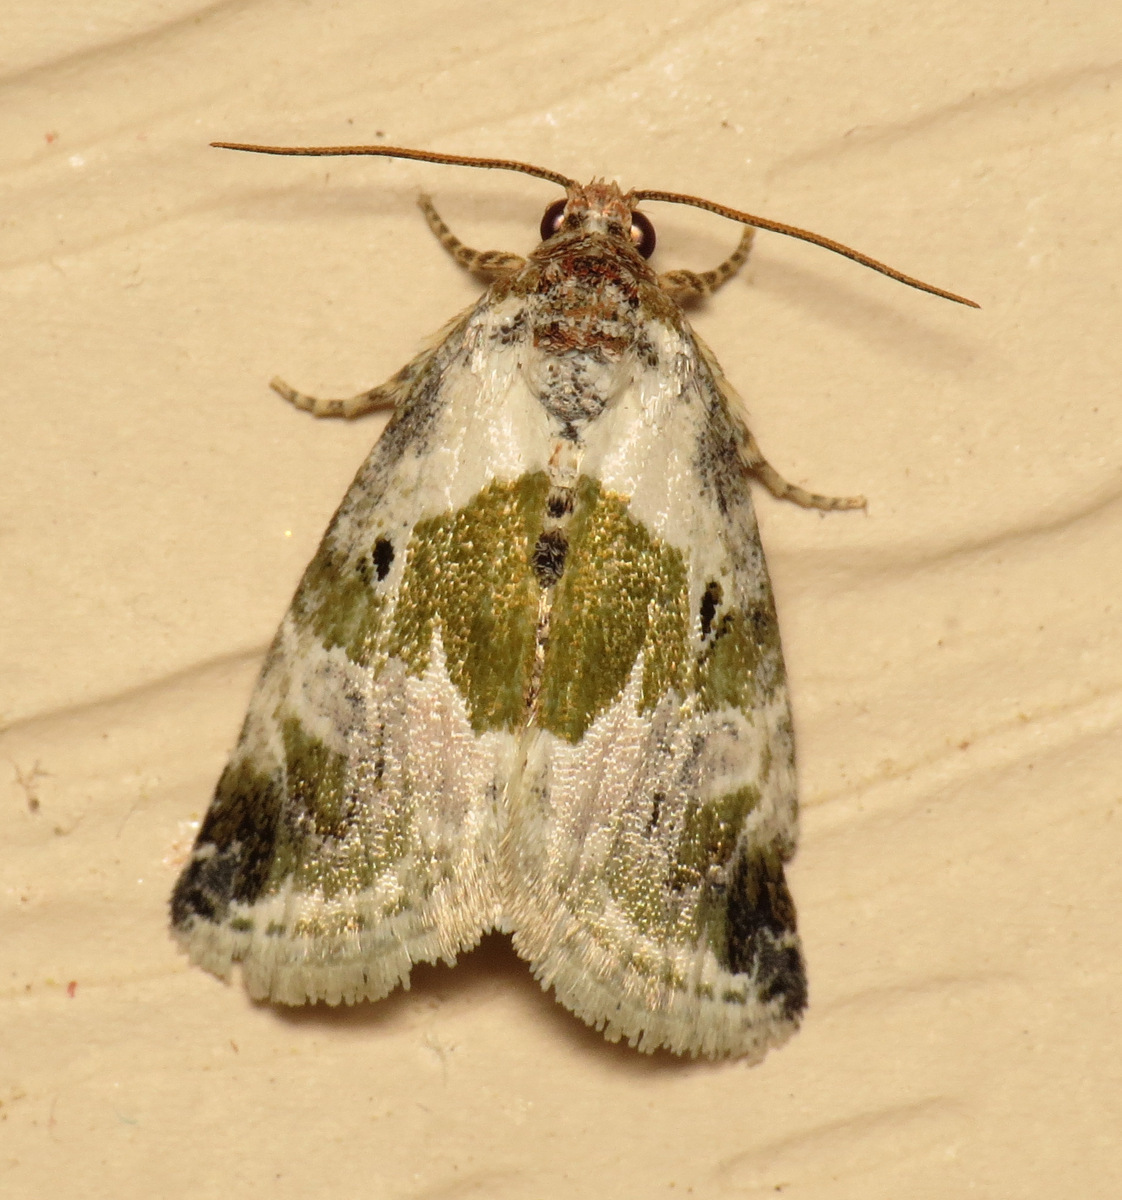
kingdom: Animalia
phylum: Arthropoda
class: Insecta
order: Lepidoptera
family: Noctuidae
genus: Maliattha
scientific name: Maliattha synochitis
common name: Black-dotted glyph
